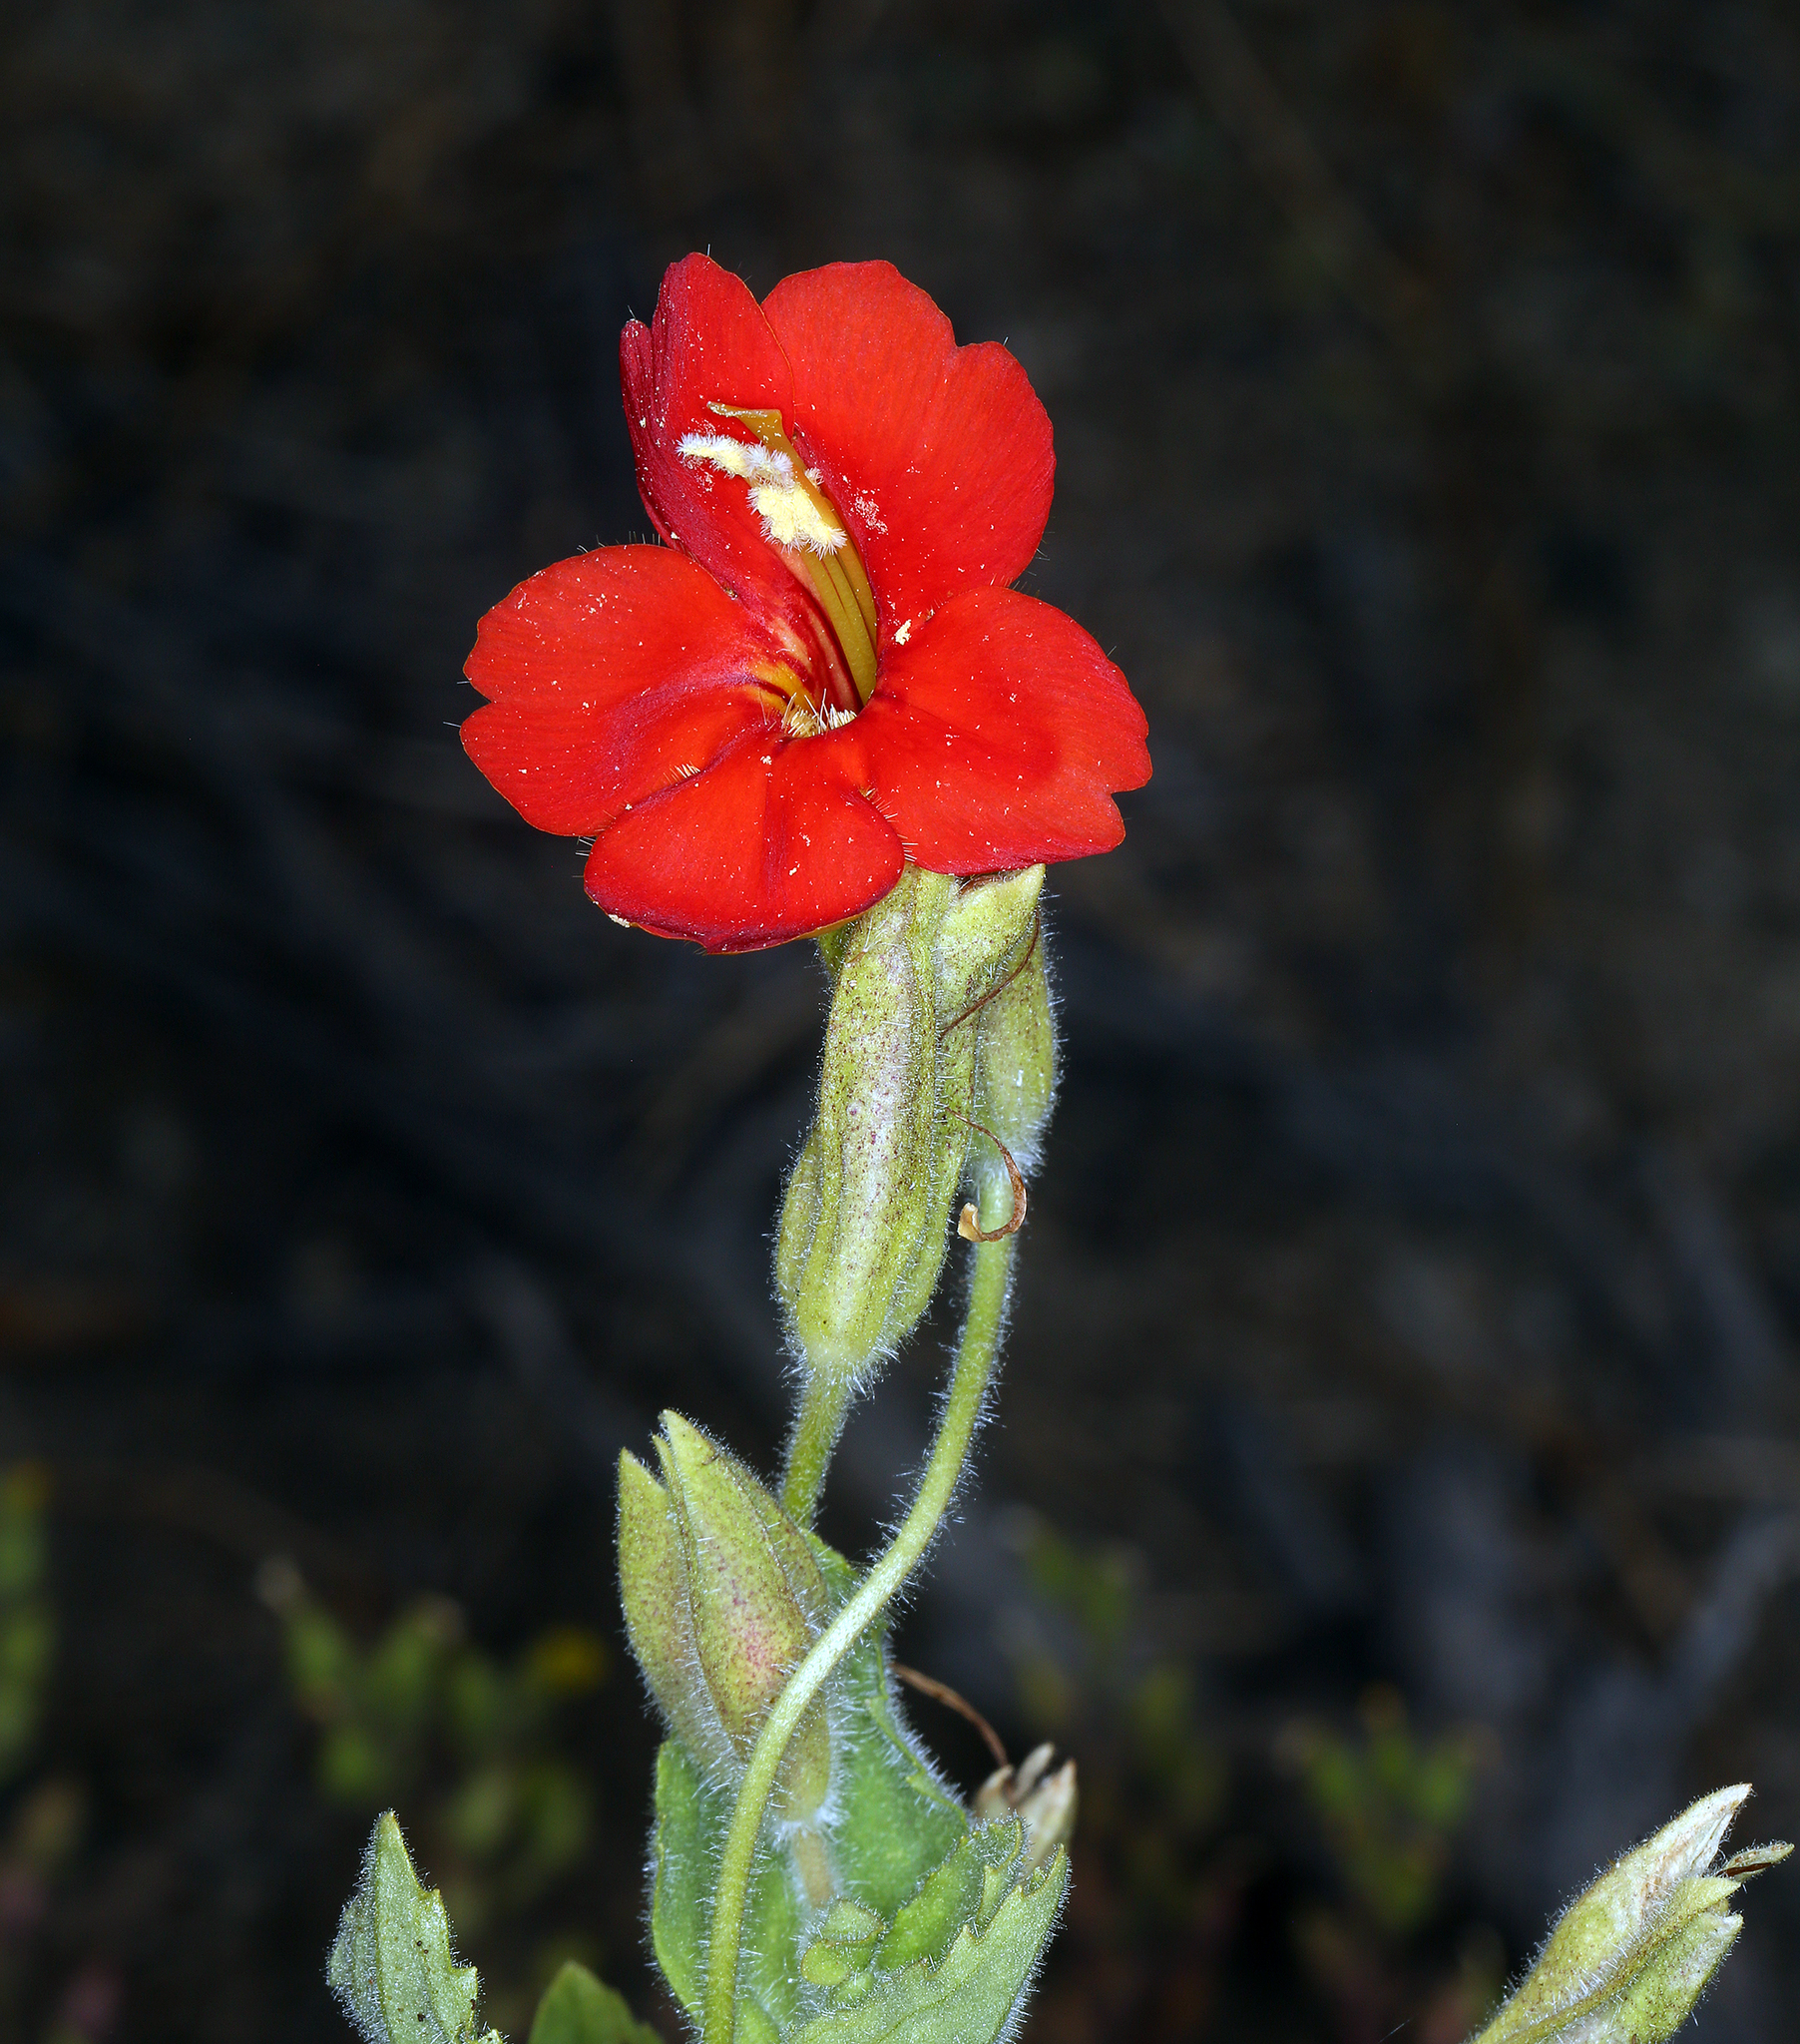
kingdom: Plantae
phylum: Tracheophyta
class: Magnoliopsida
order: Lamiales
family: Phrymaceae
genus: Erythranthe
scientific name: Erythranthe cardinalis
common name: Scarlet monkey-flower
